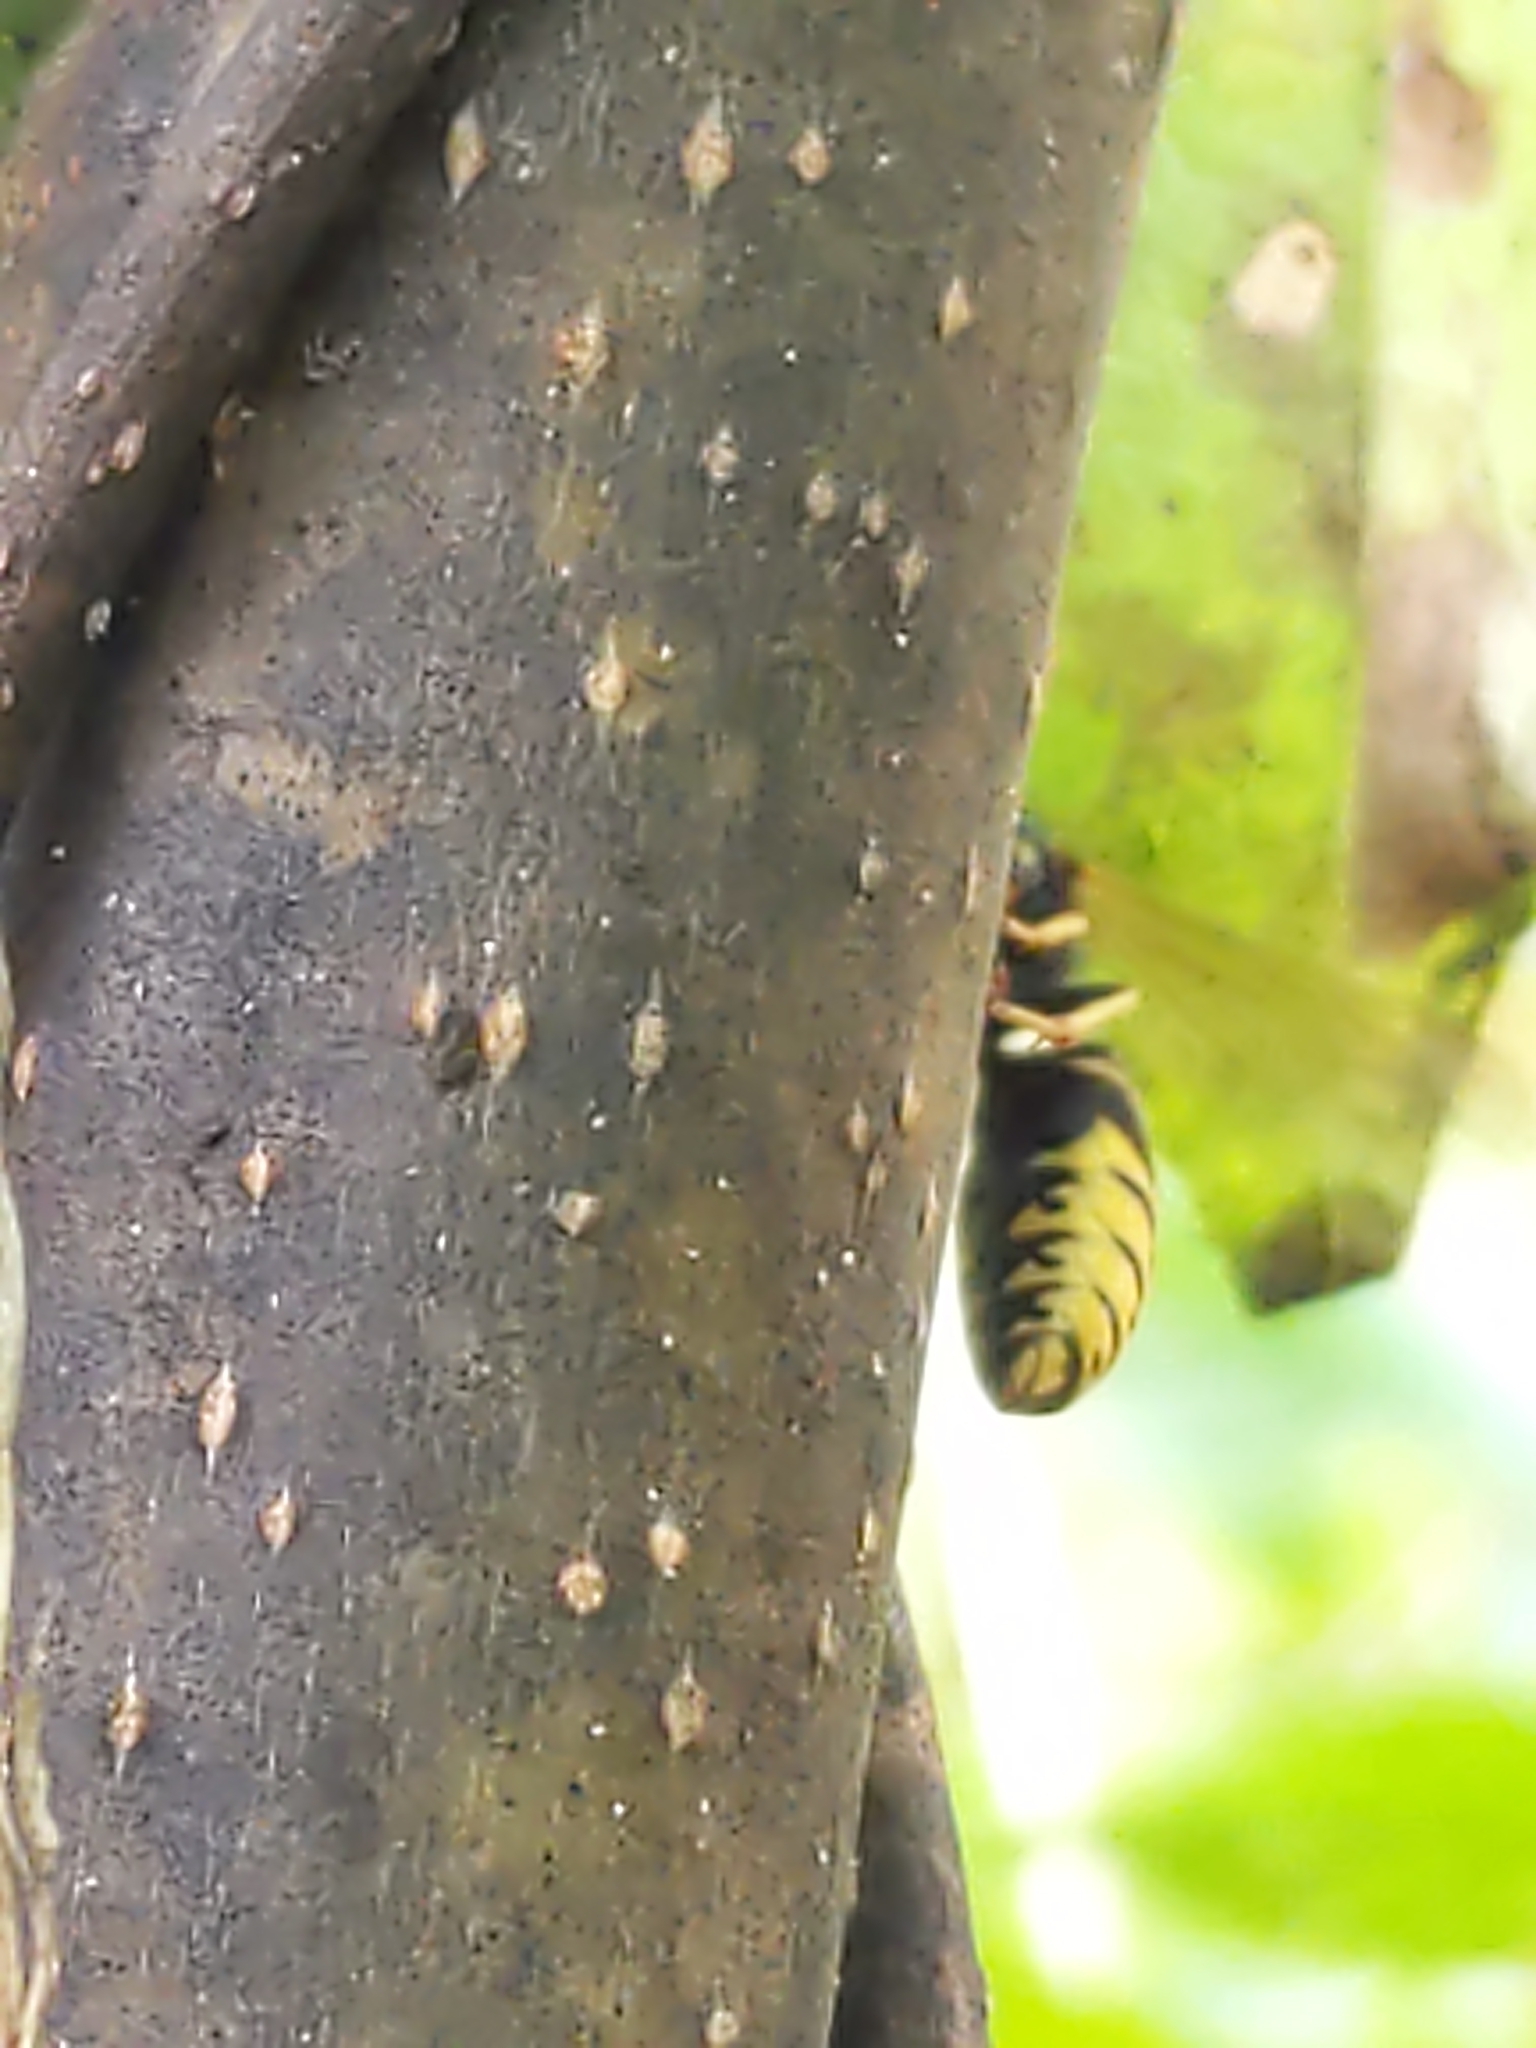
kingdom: Animalia
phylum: Arthropoda
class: Insecta
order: Hymenoptera
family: Vespidae
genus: Vespula
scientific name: Vespula vidua
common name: Widow yellowjacket
